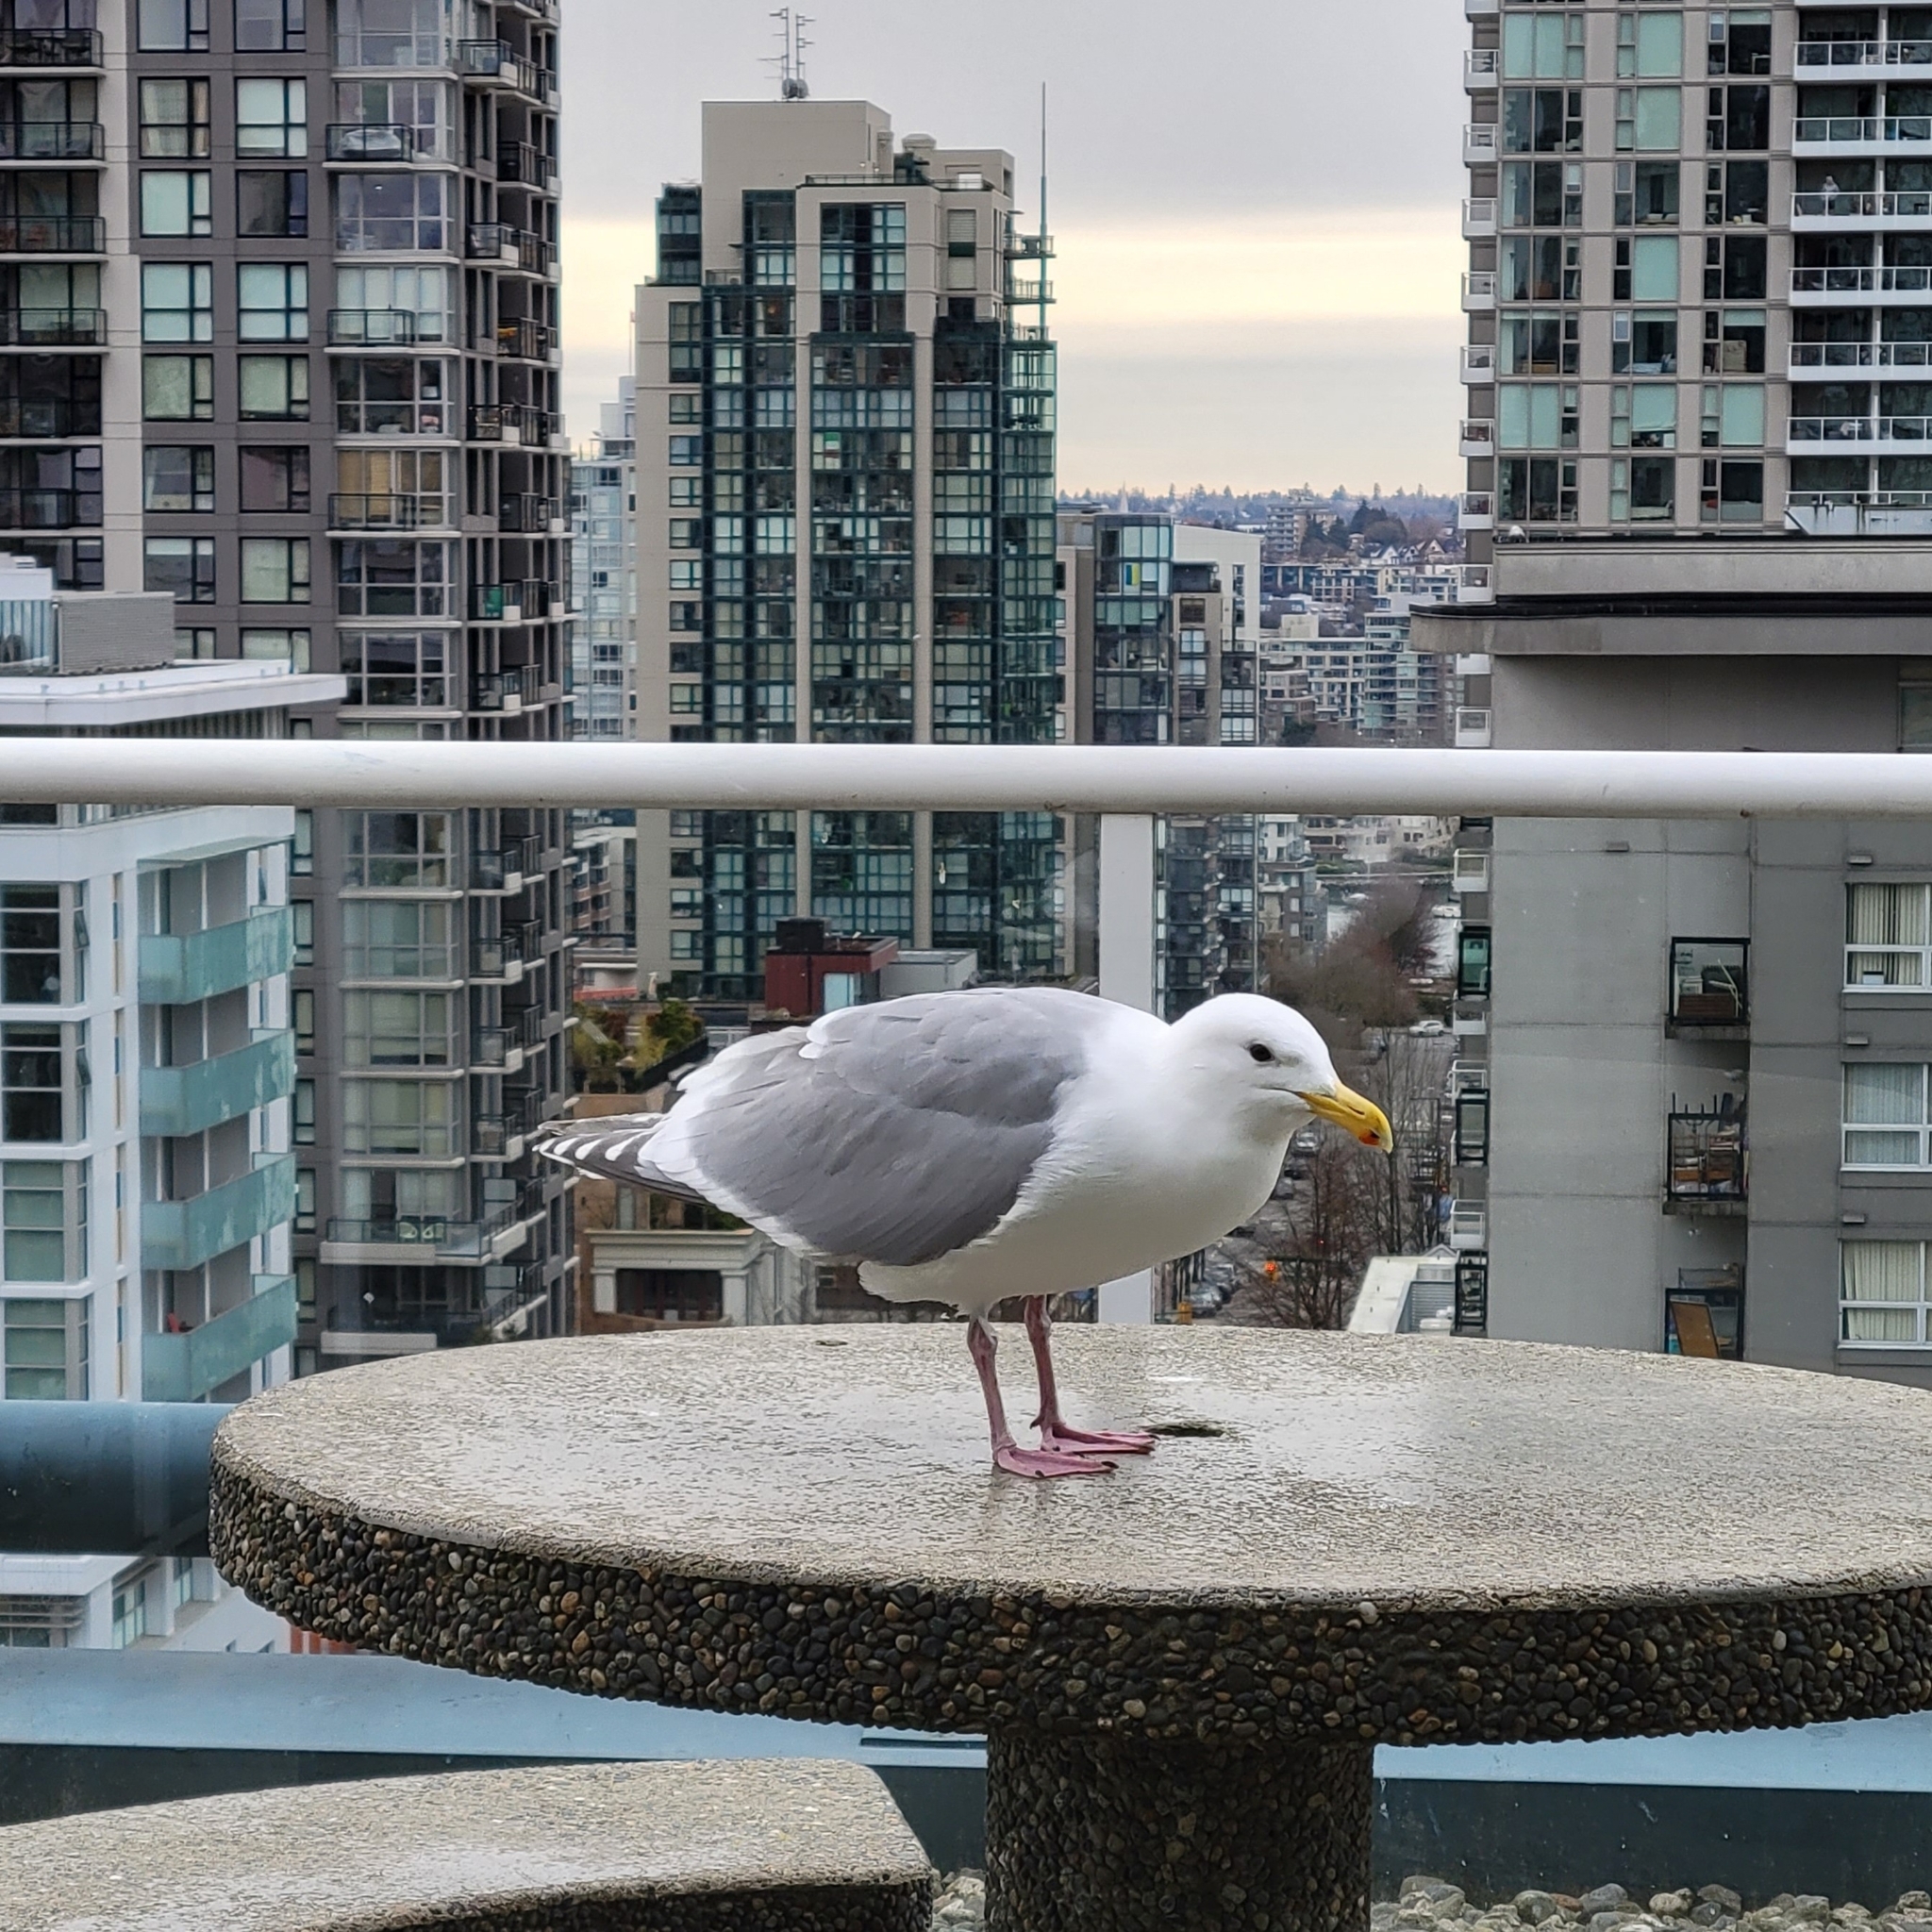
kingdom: Animalia
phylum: Chordata
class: Aves
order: Charadriiformes
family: Laridae
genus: Larus
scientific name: Larus
